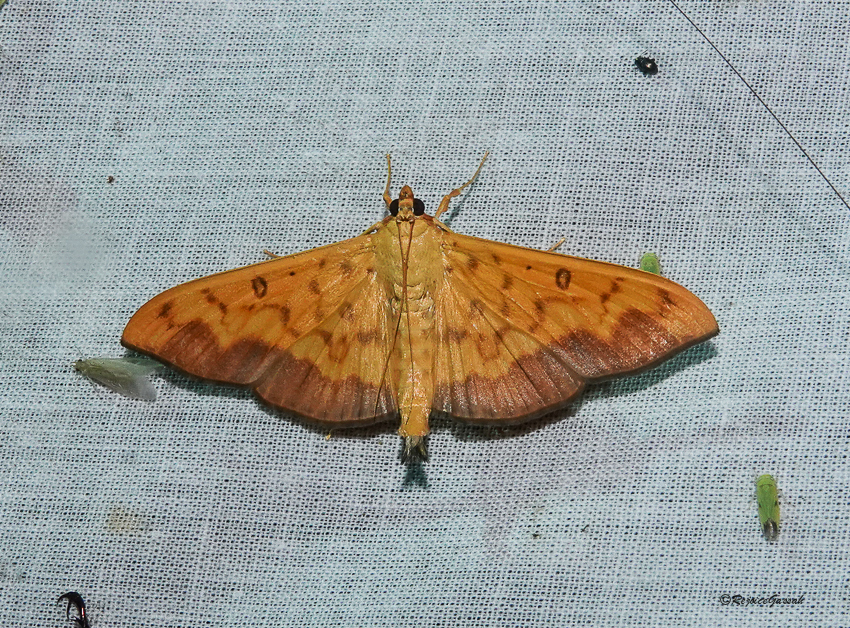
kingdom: Animalia
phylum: Arthropoda
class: Insecta
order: Lepidoptera
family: Crambidae
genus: Botyodes
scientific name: Botyodes asialis
